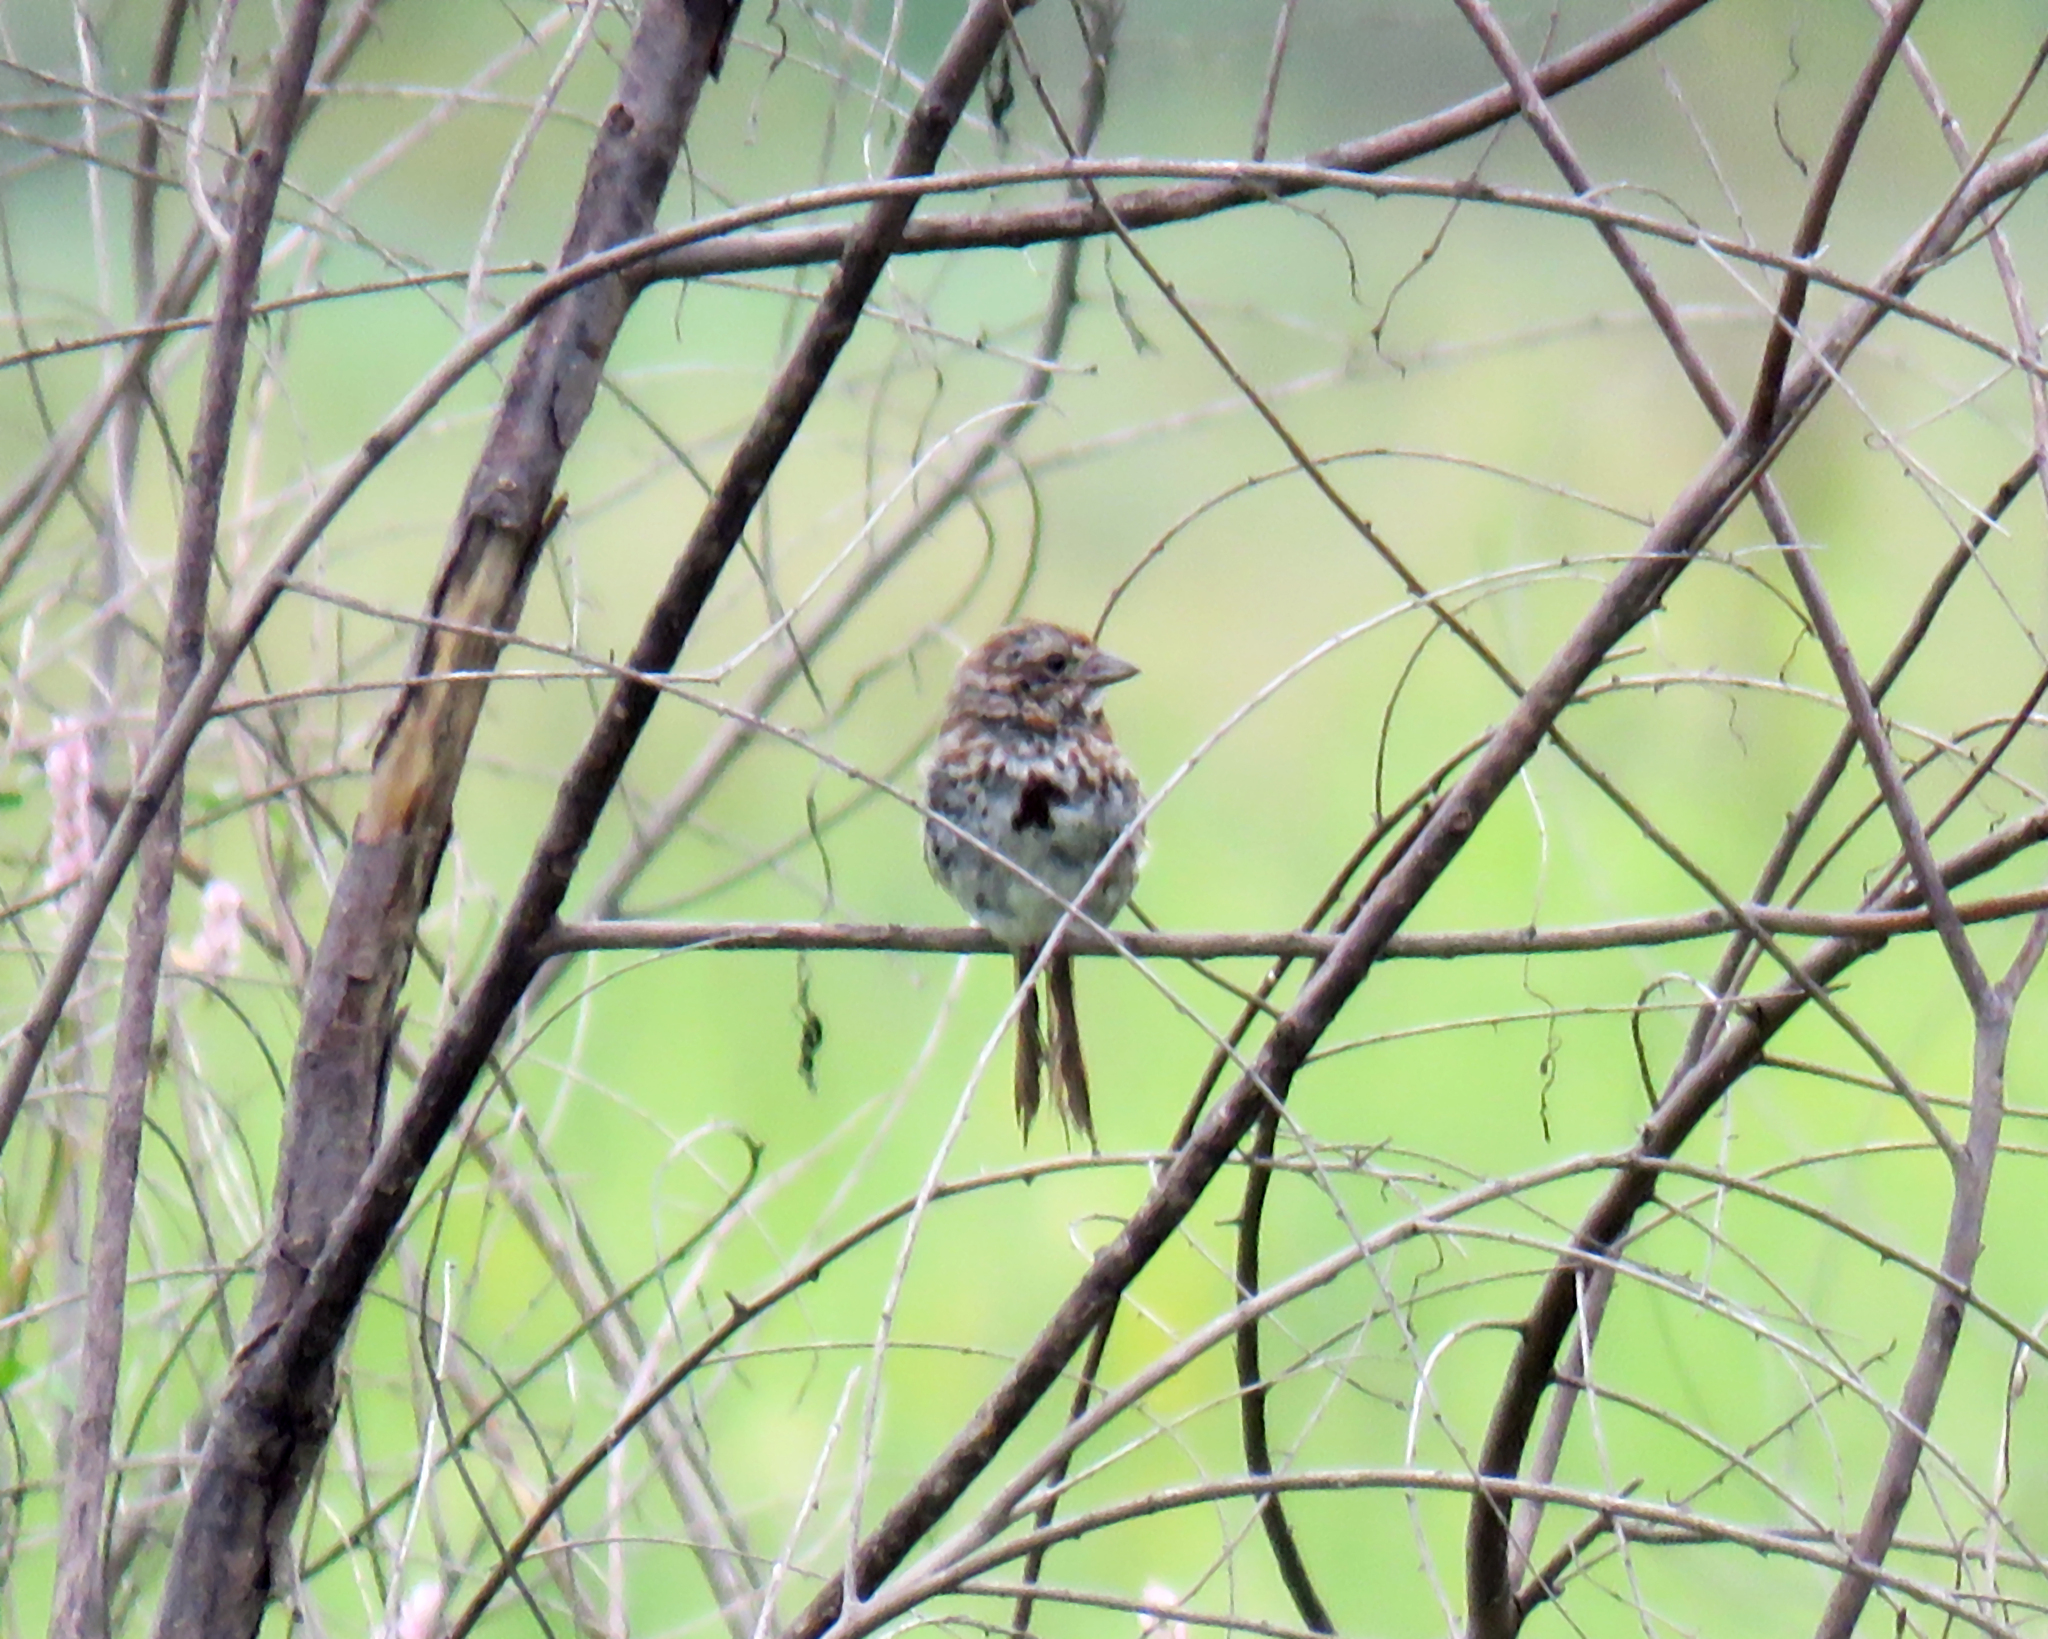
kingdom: Animalia
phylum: Chordata
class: Aves
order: Passeriformes
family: Passerellidae
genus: Melospiza
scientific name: Melospiza melodia
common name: Song sparrow
